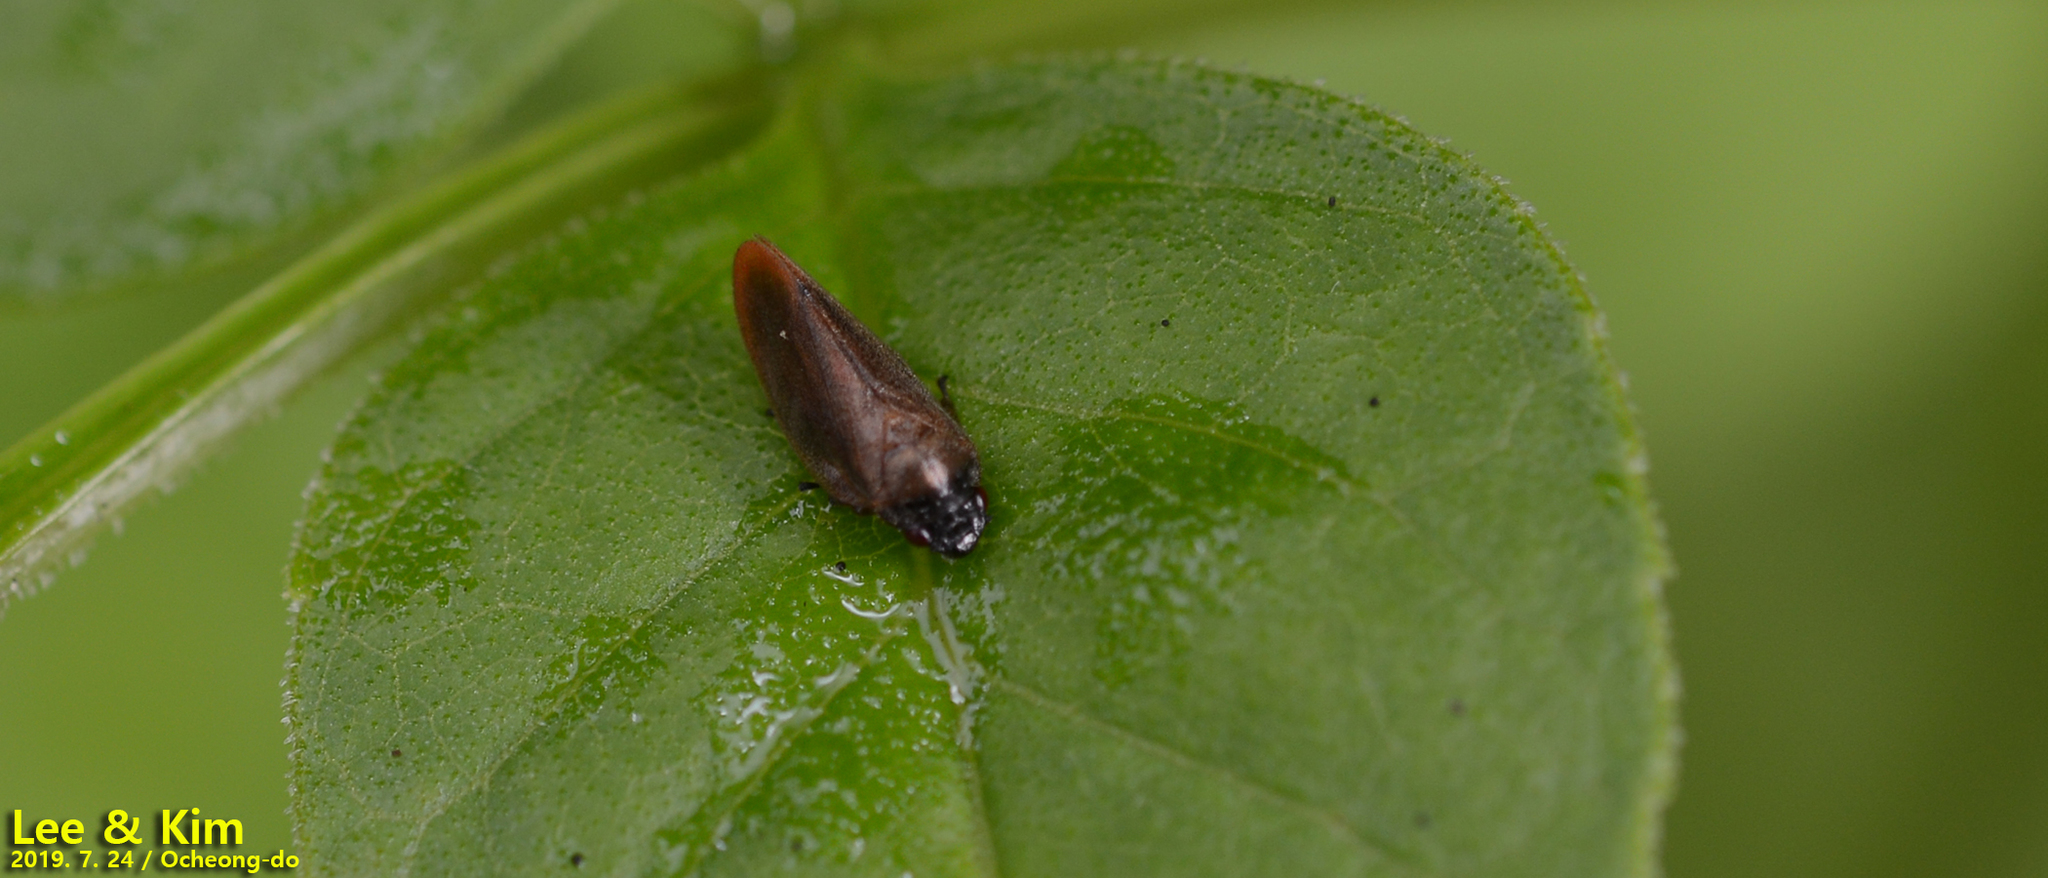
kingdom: Animalia
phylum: Arthropoda
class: Insecta
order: Hemiptera
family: Cercopidae
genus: Eoscarta
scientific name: Eoscarta assimilis
